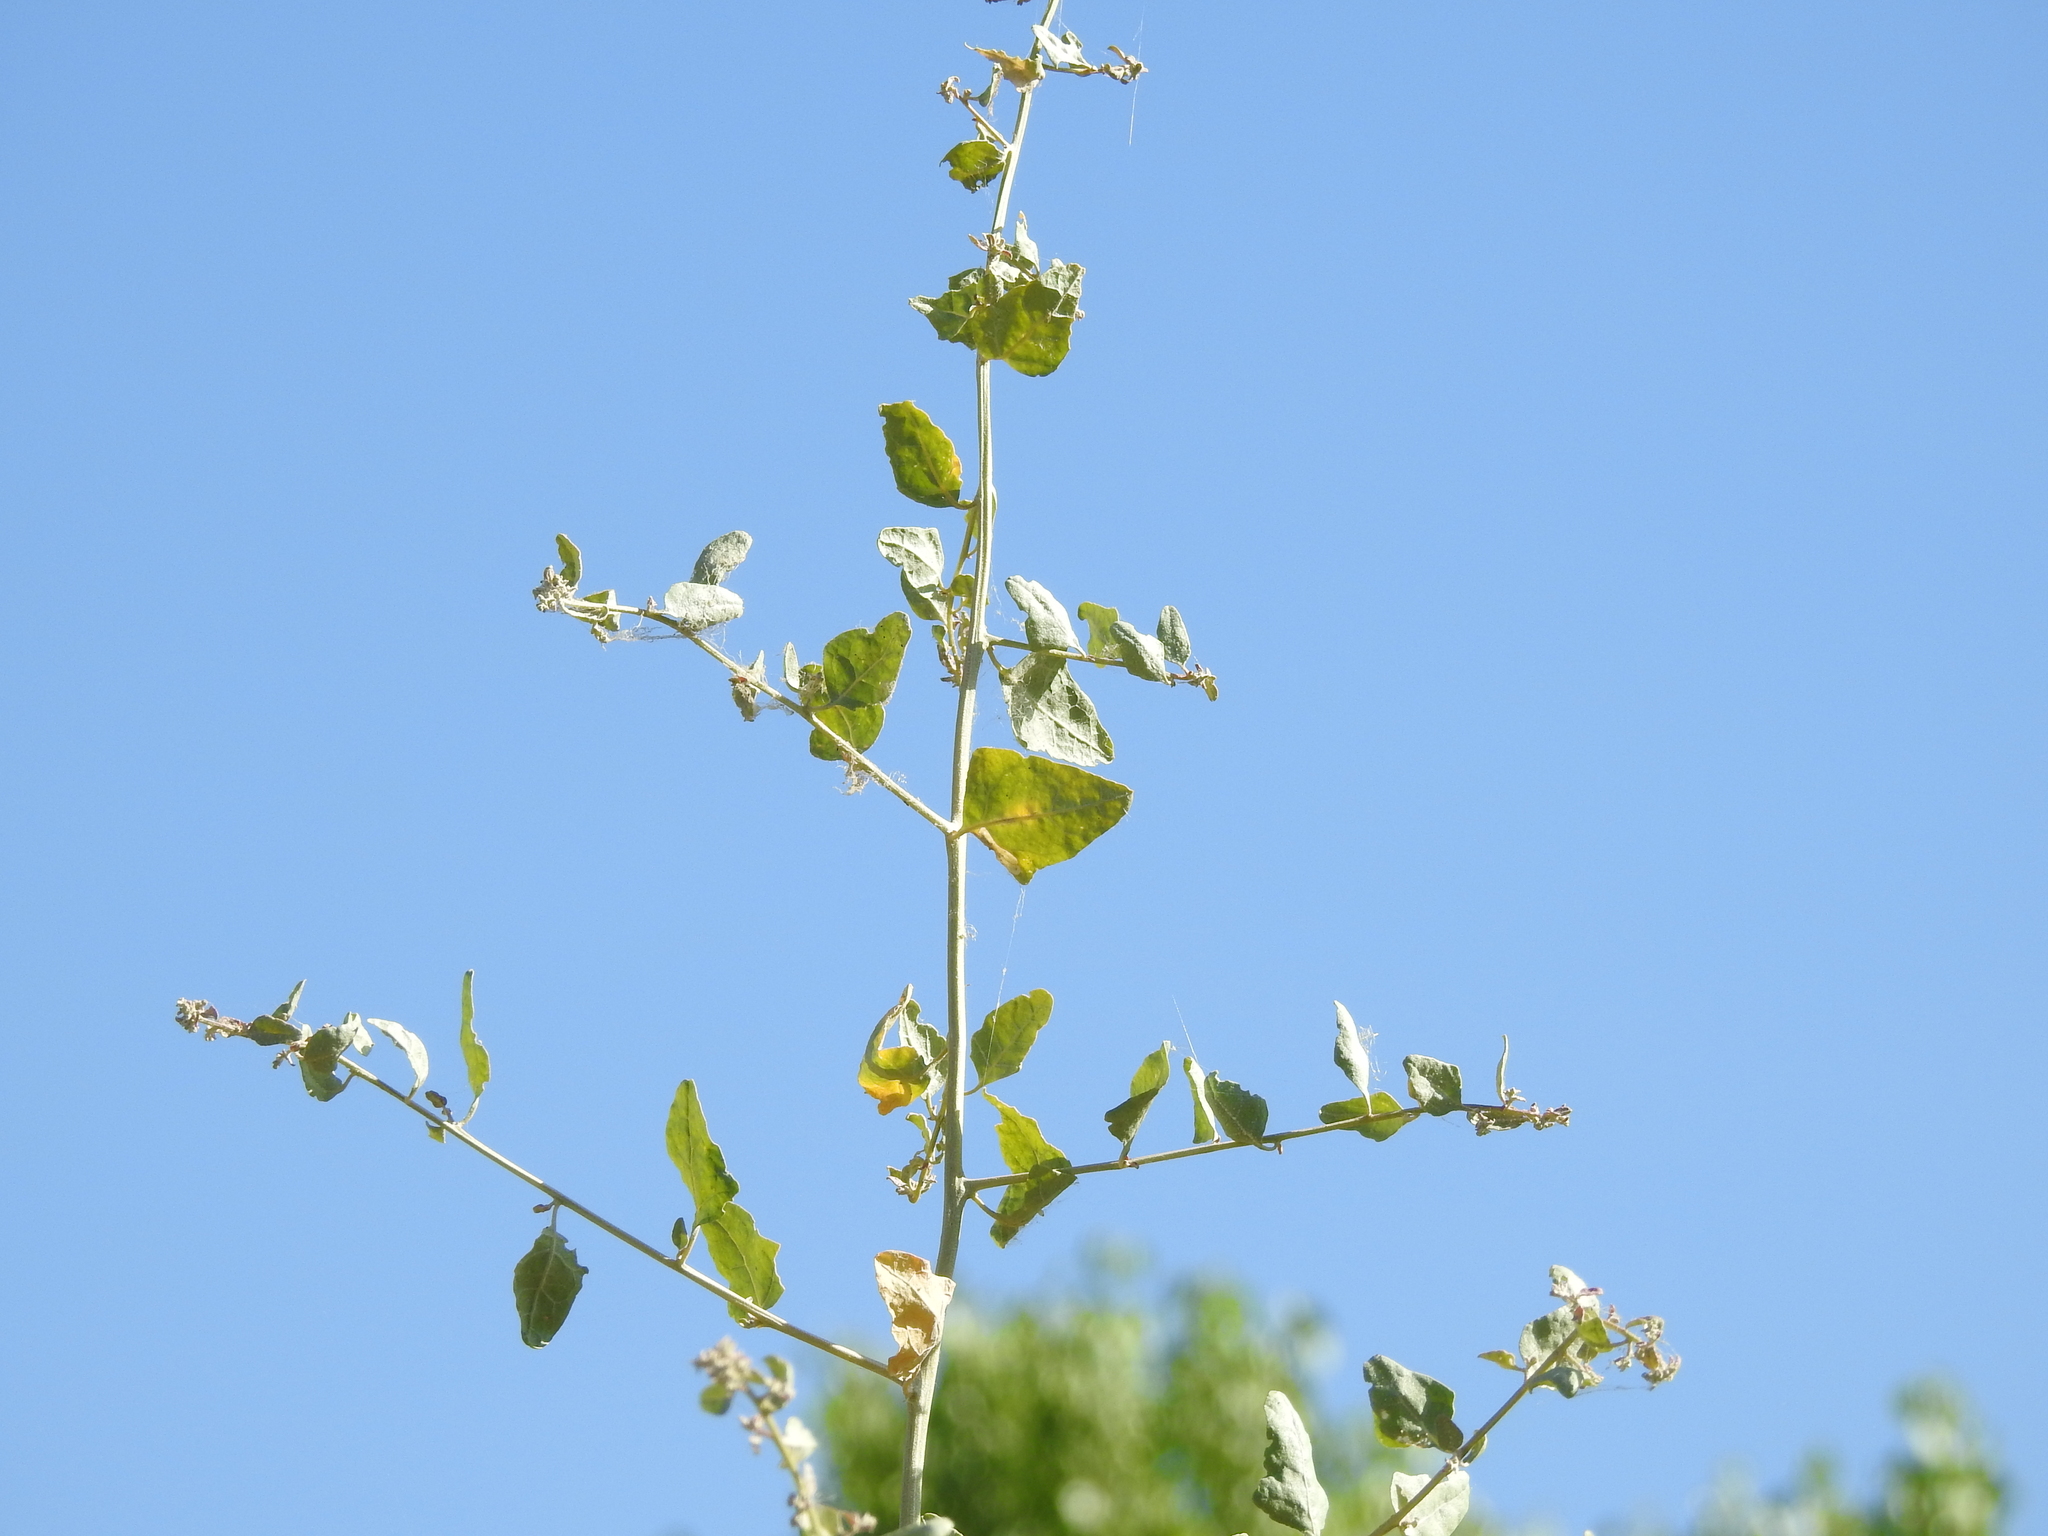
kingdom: Plantae
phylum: Tracheophyta
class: Magnoliopsida
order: Caryophyllales
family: Amaranthaceae
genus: Atriplex
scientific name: Atriplex lentiformis
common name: Big saltbush
